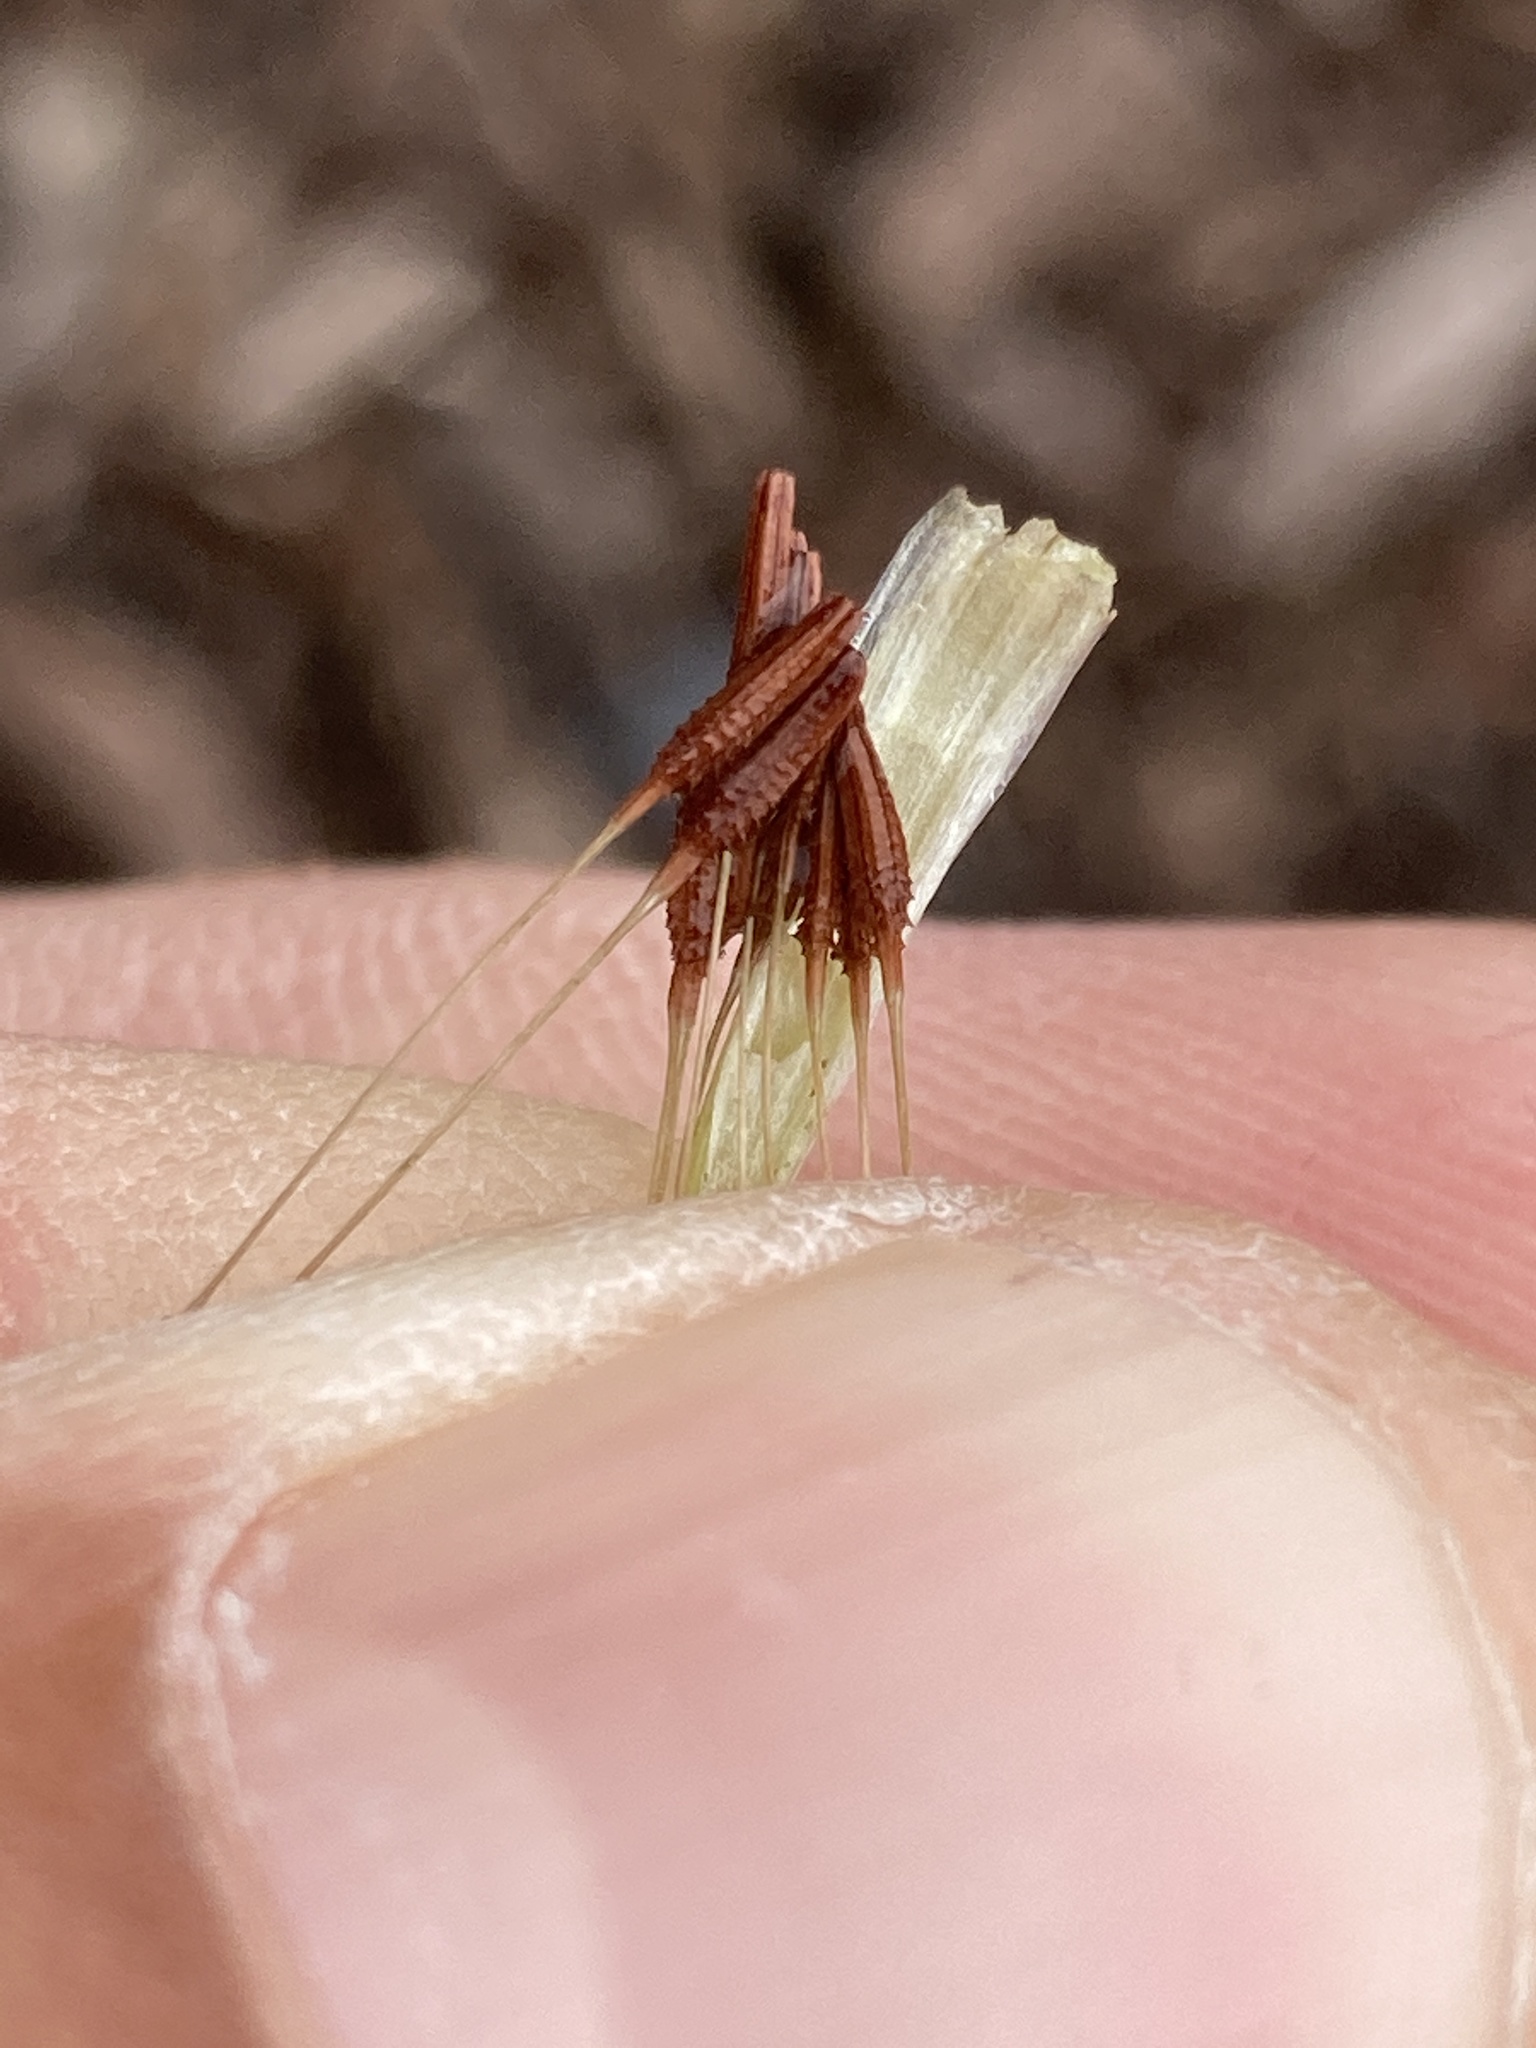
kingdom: Plantae
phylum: Tracheophyta
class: Magnoliopsida
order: Asterales
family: Asteraceae
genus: Taraxacum
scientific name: Taraxacum erythrospermum
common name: Rock dandelion
